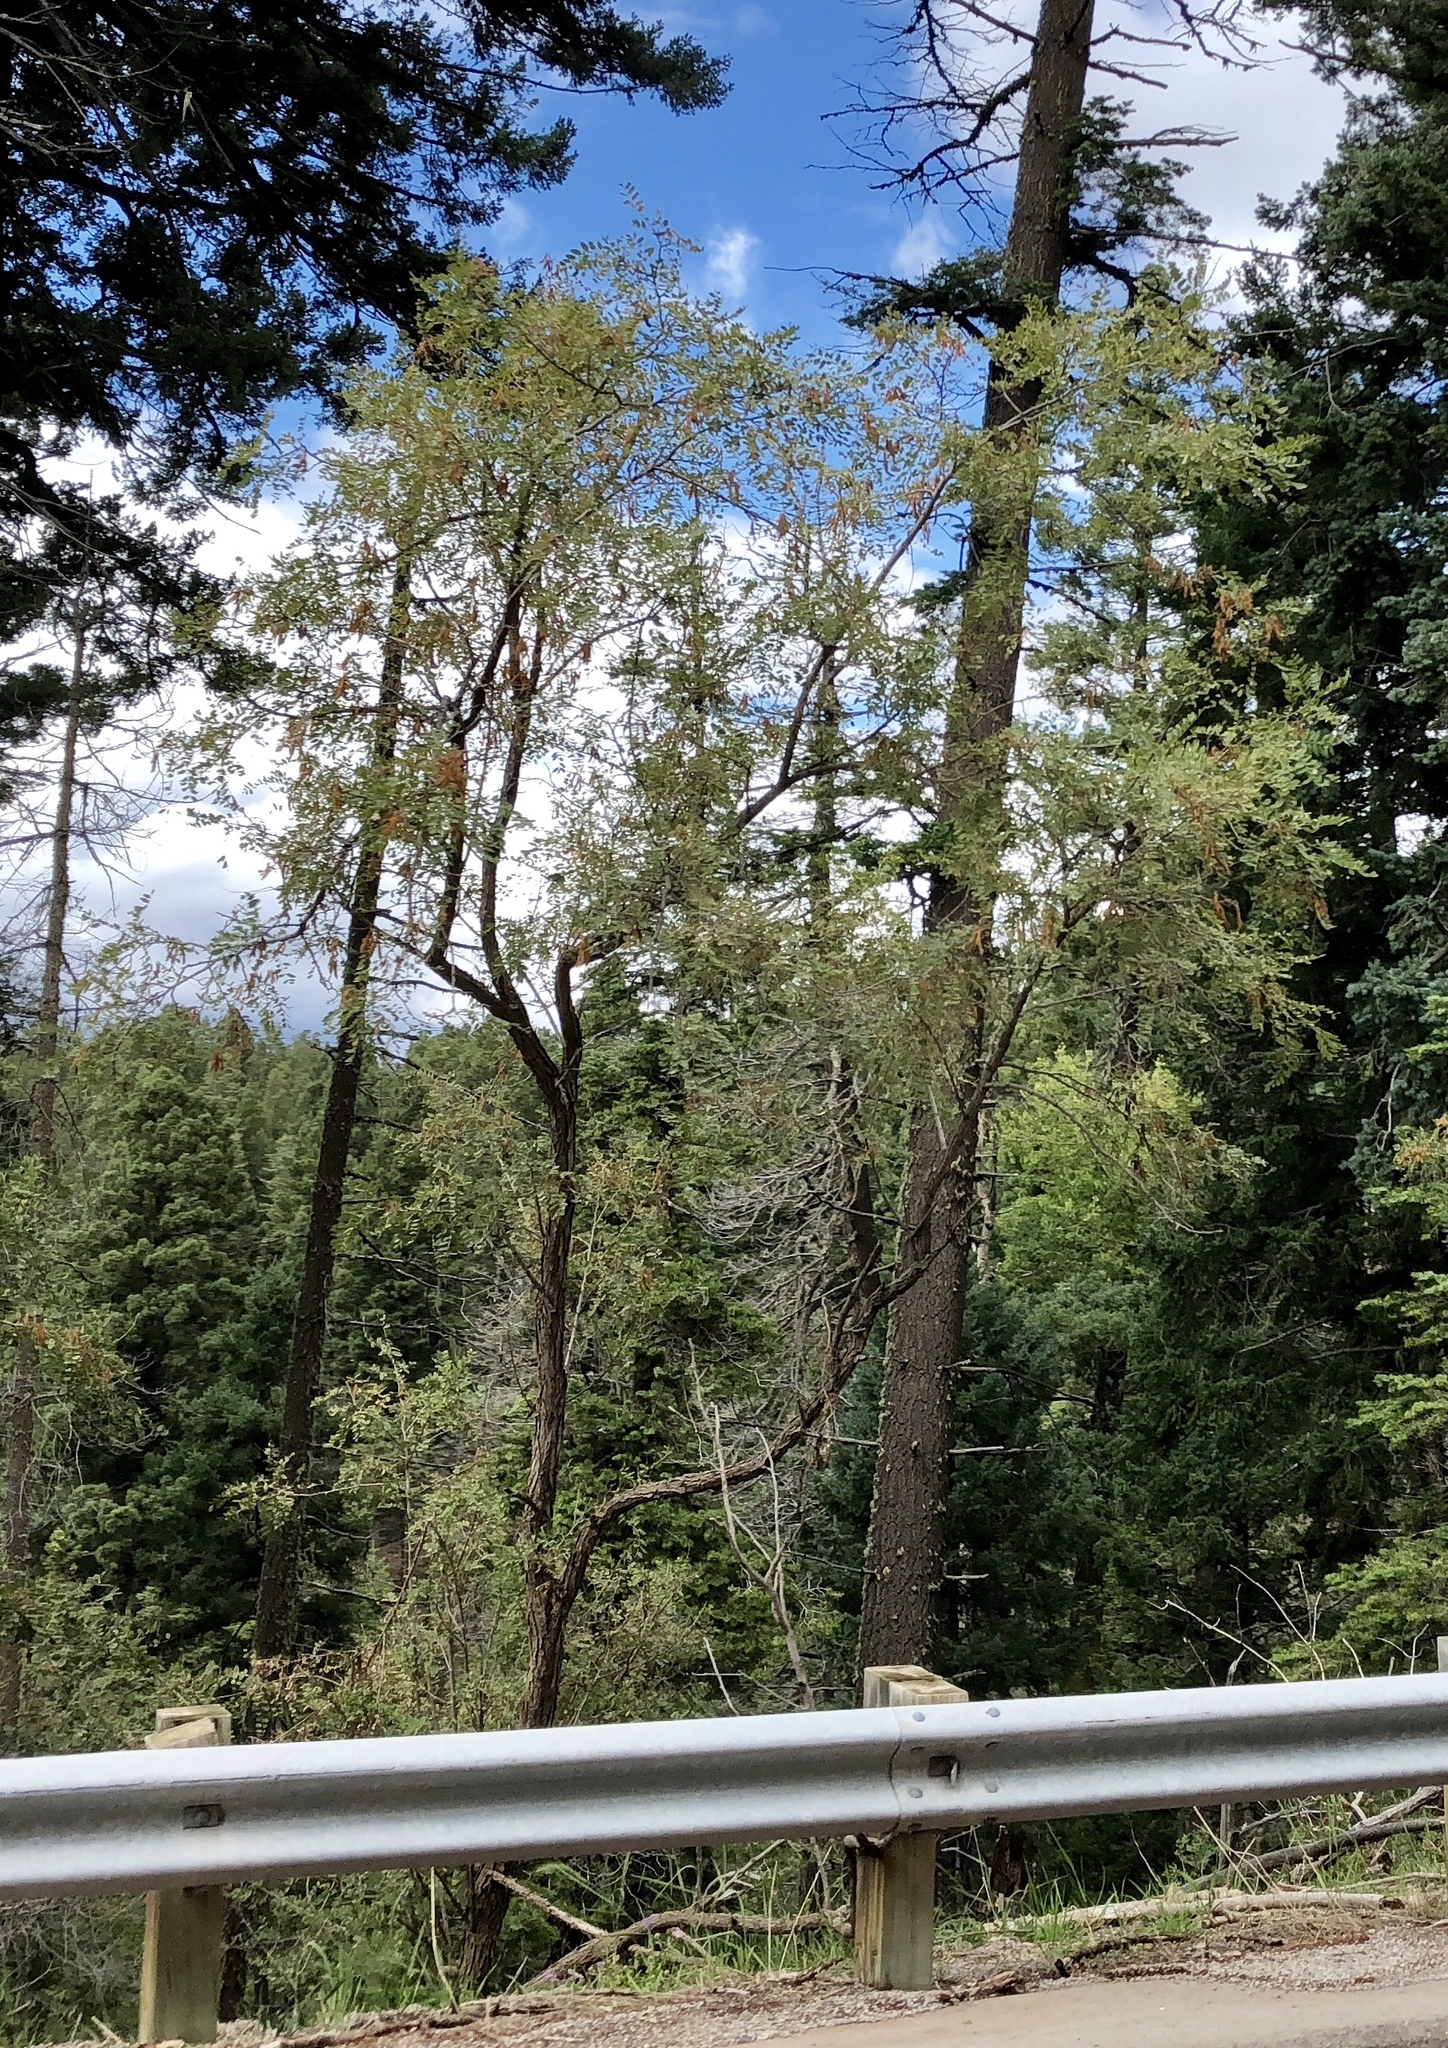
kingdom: Plantae
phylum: Tracheophyta
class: Magnoliopsida
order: Fabales
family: Fabaceae
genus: Robinia
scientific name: Robinia neomexicana
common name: New mexico locust
